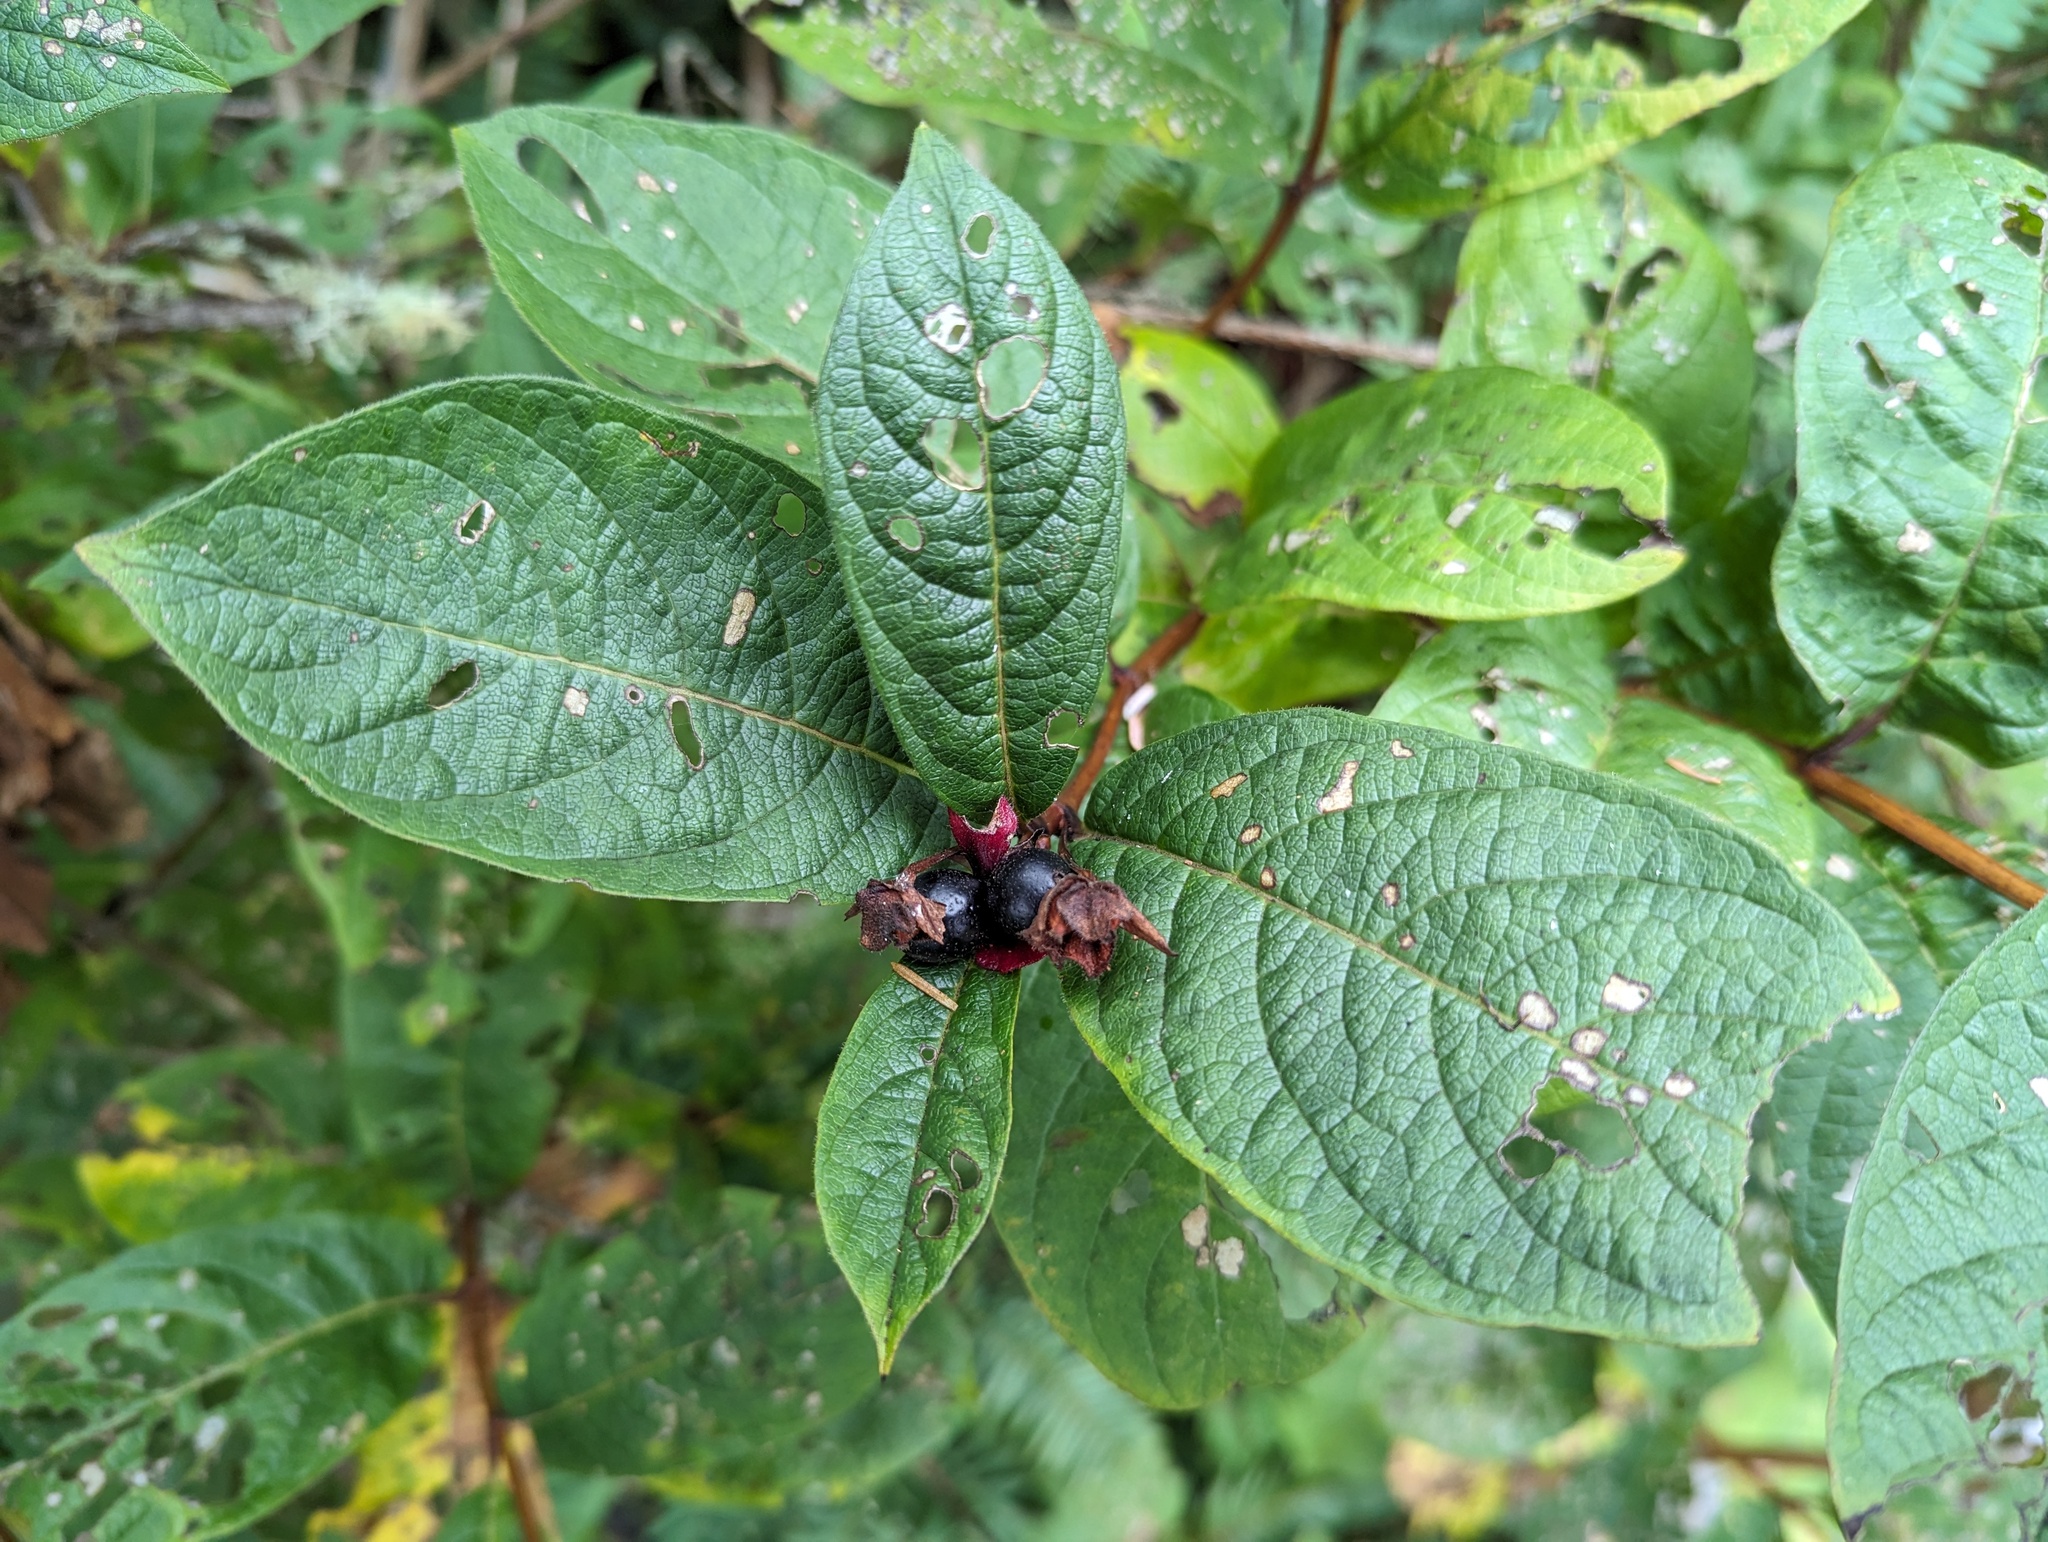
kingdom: Plantae
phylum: Tracheophyta
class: Magnoliopsida
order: Dipsacales
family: Caprifoliaceae
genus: Lonicera
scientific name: Lonicera involucrata
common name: Californian honeysuckle
